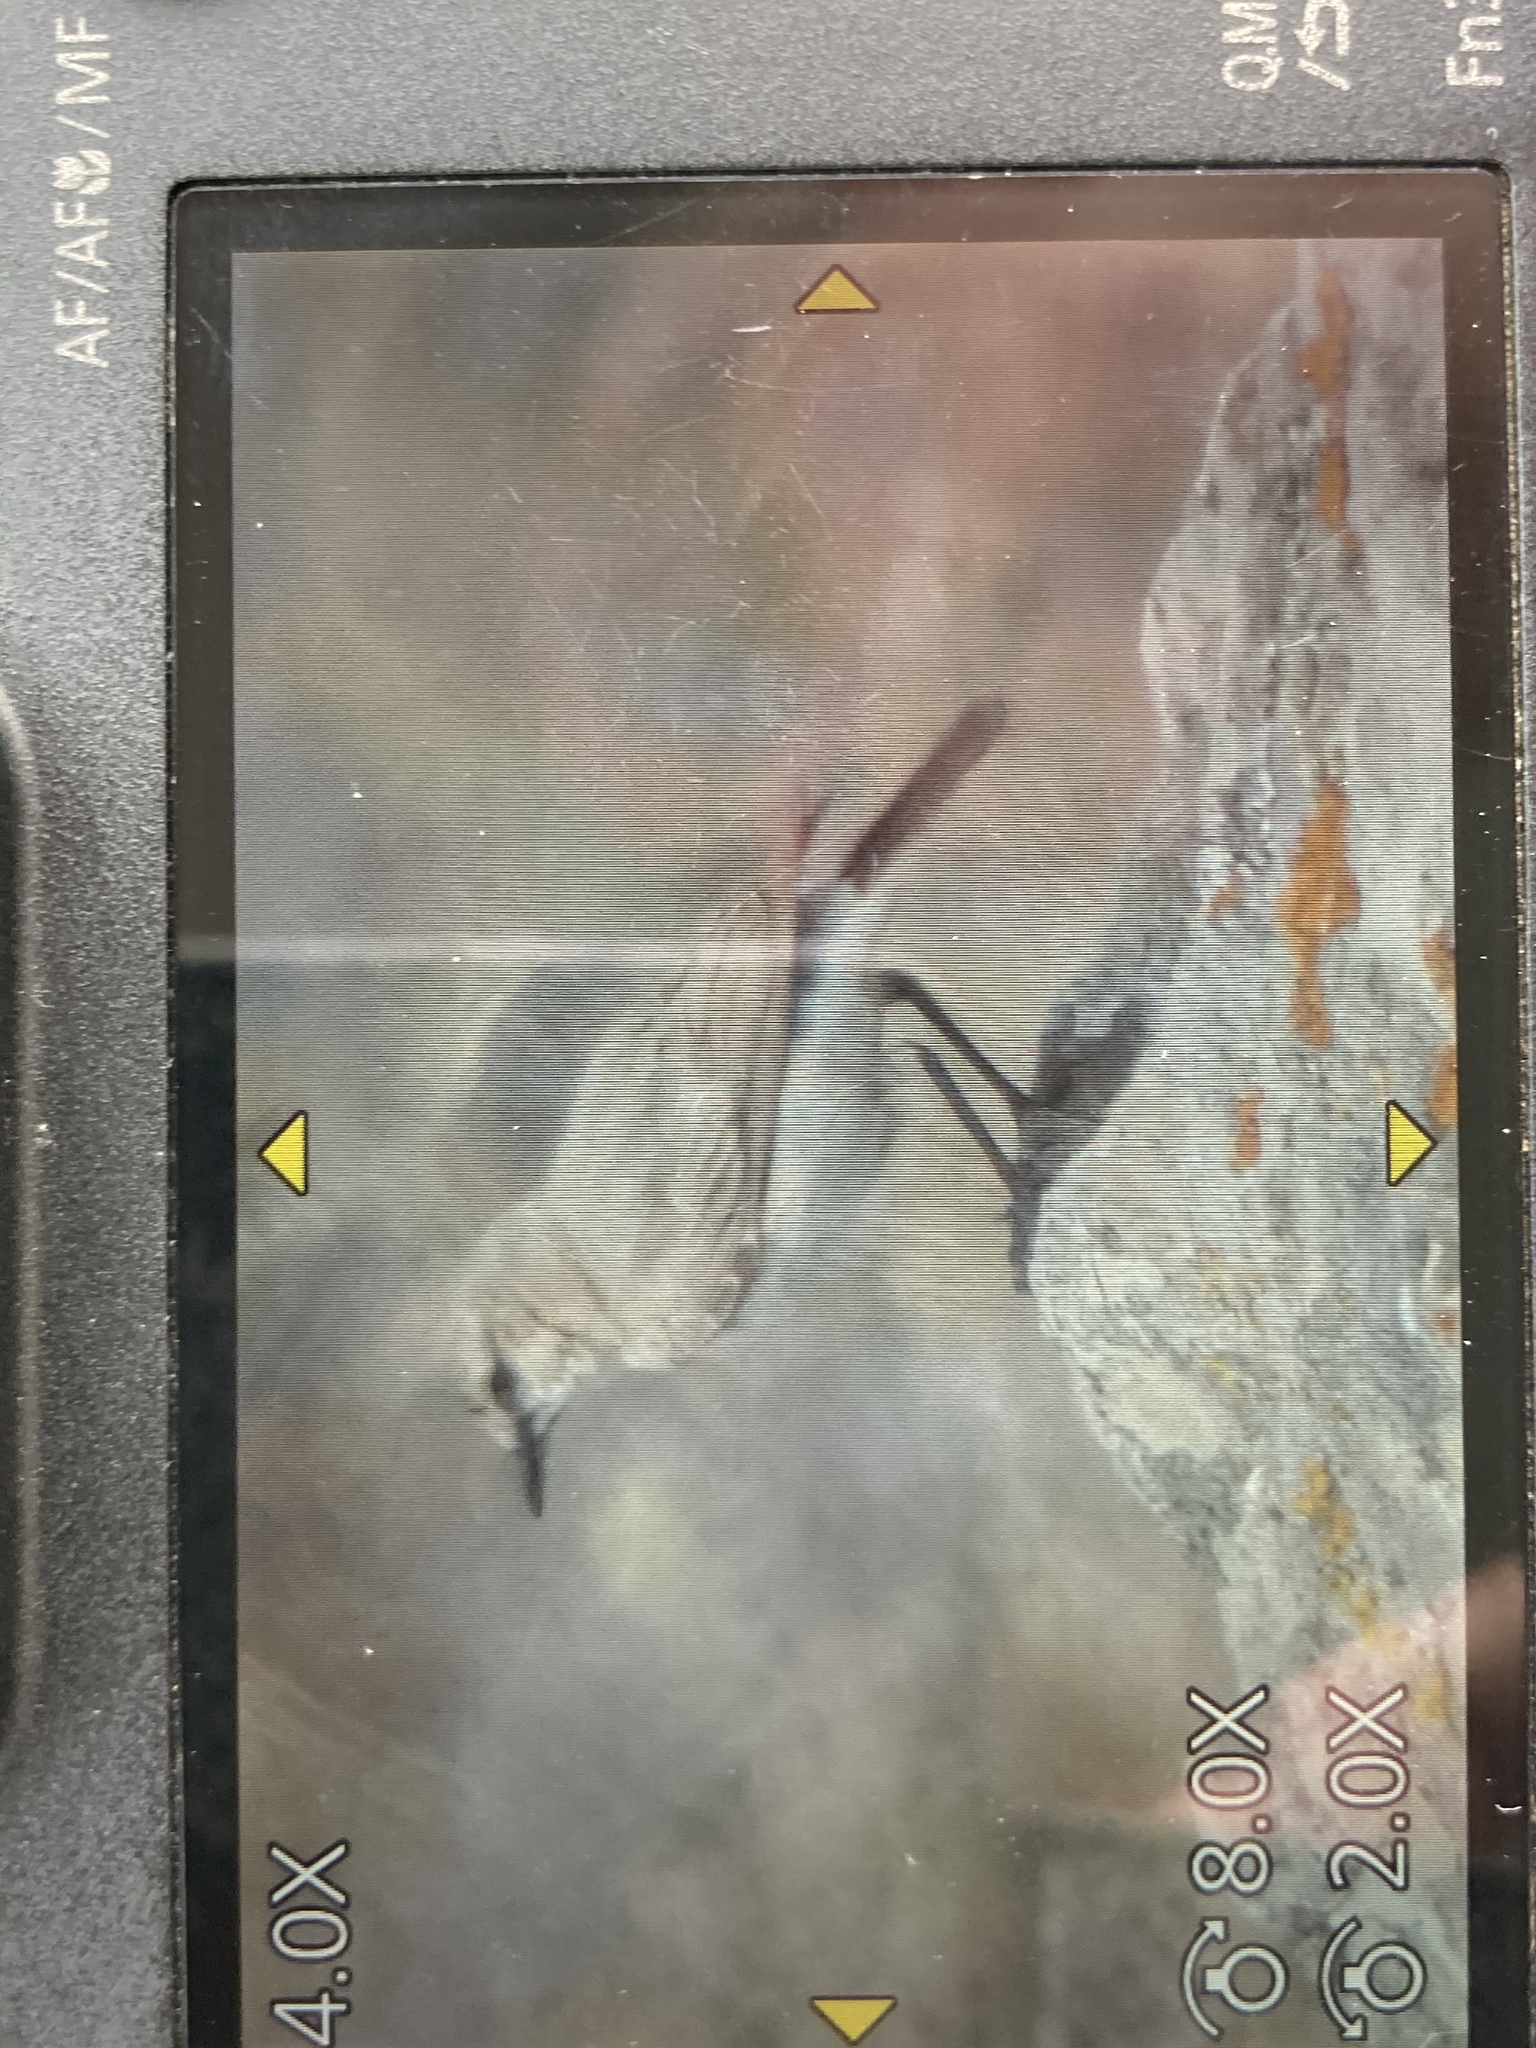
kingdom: Animalia
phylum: Chordata
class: Aves
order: Passeriformes
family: Muscicapidae
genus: Oenanthe
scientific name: Oenanthe isabellina
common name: Isabelline wheatear
